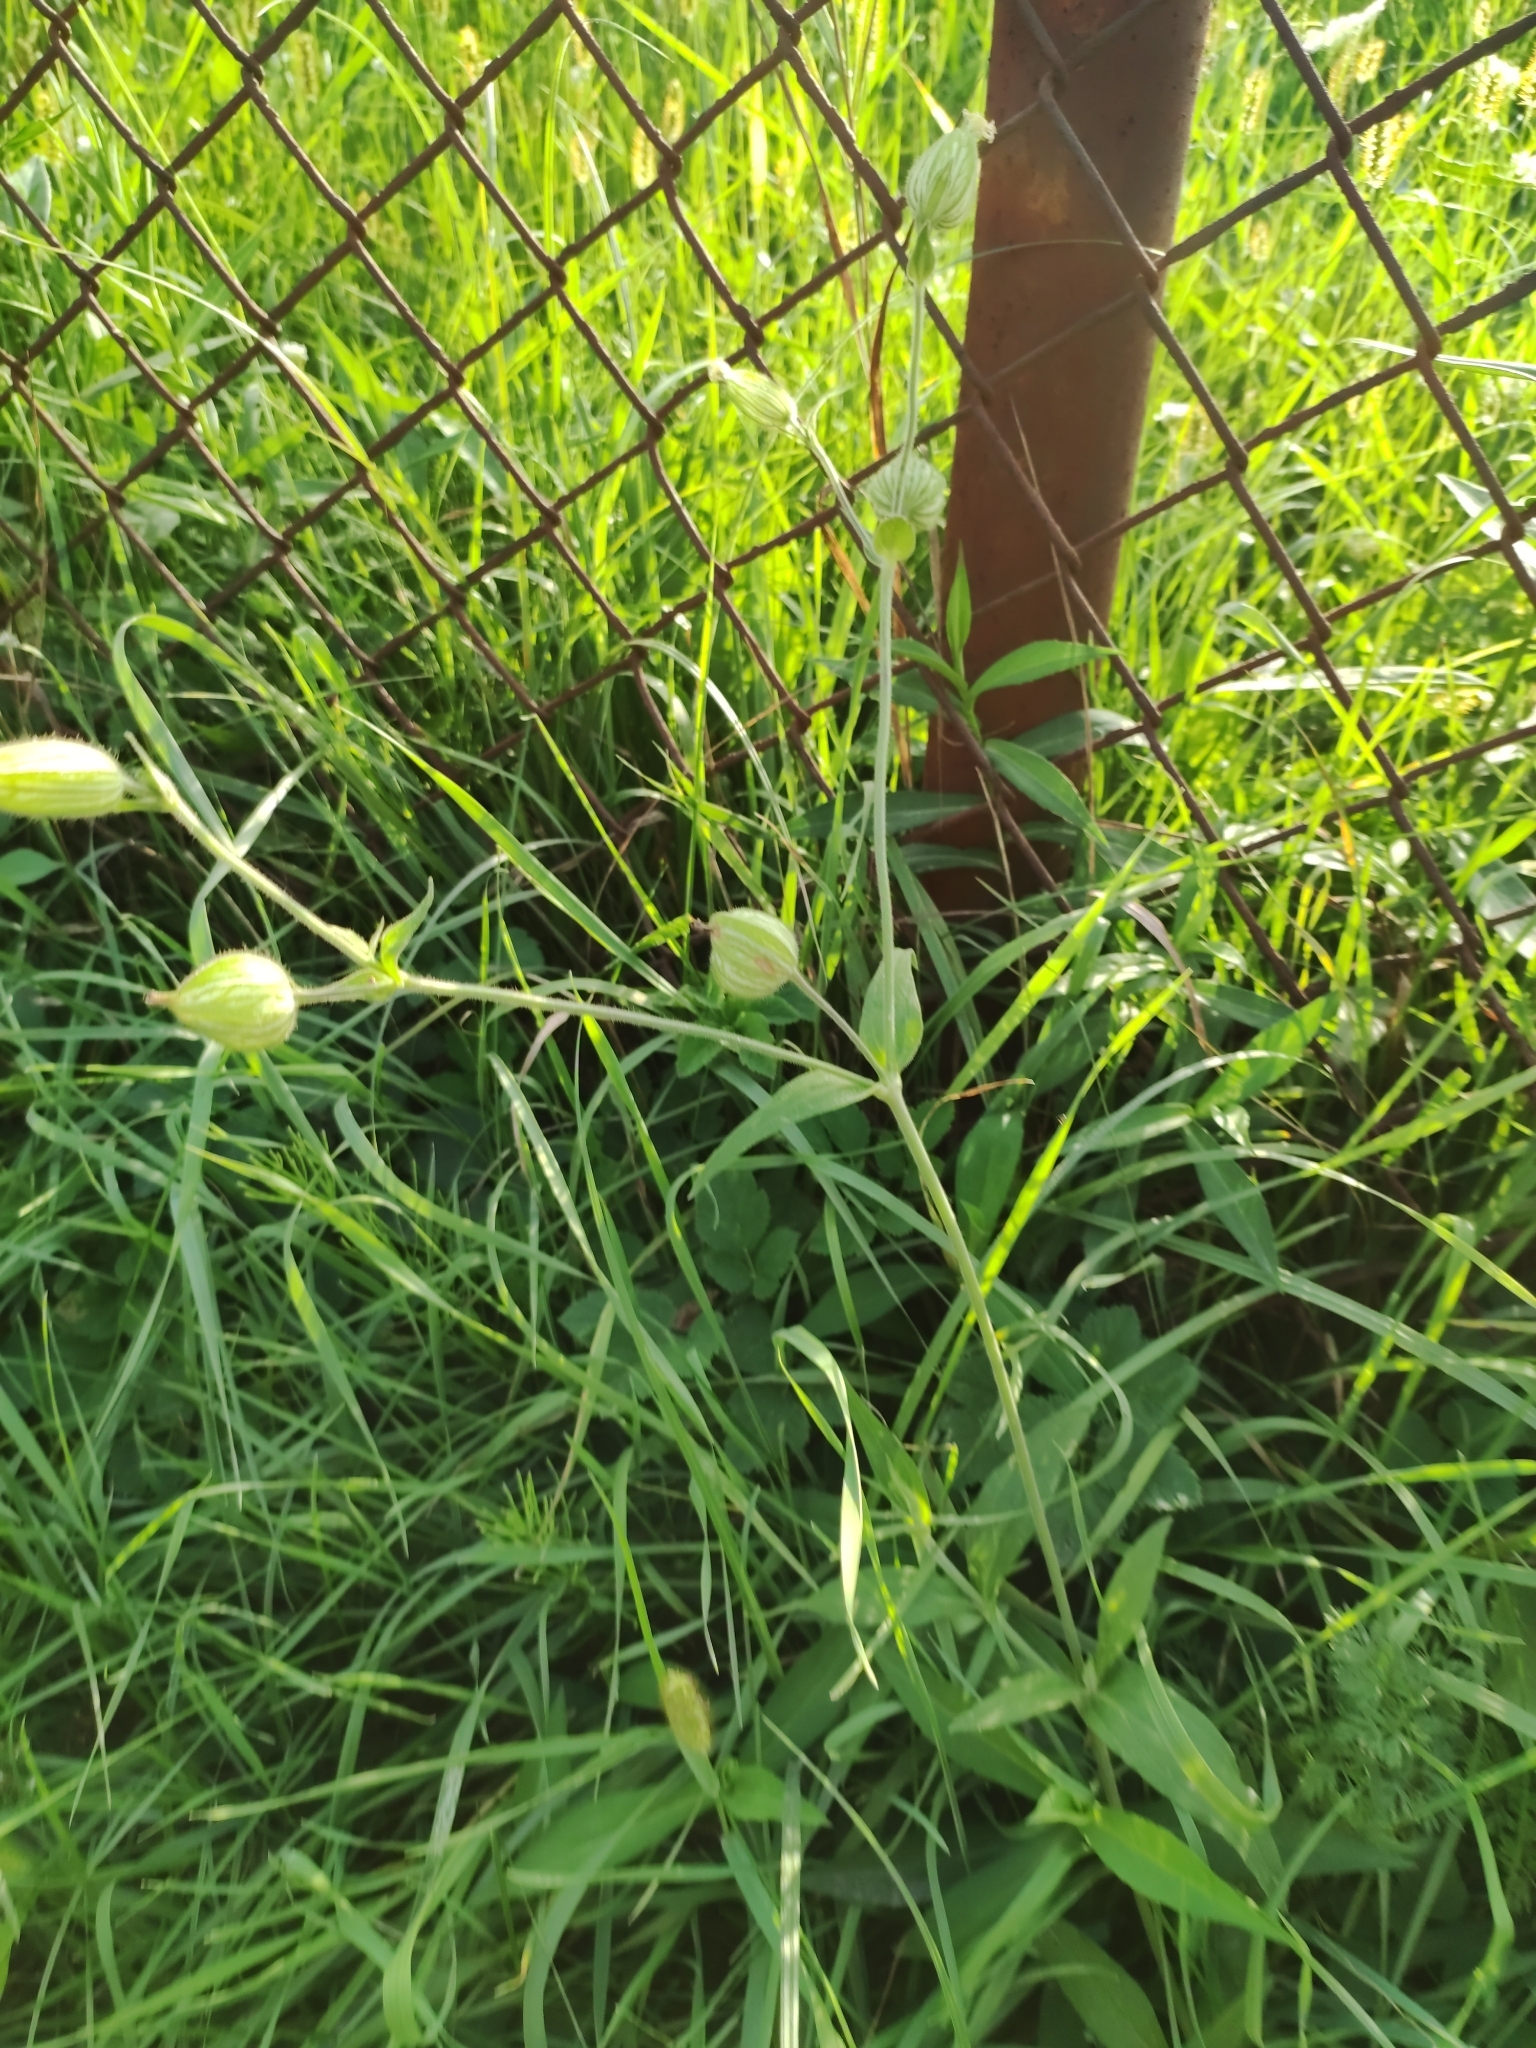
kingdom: Plantae
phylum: Tracheophyta
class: Magnoliopsida
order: Caryophyllales
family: Caryophyllaceae
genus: Silene
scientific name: Silene latifolia
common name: White campion
